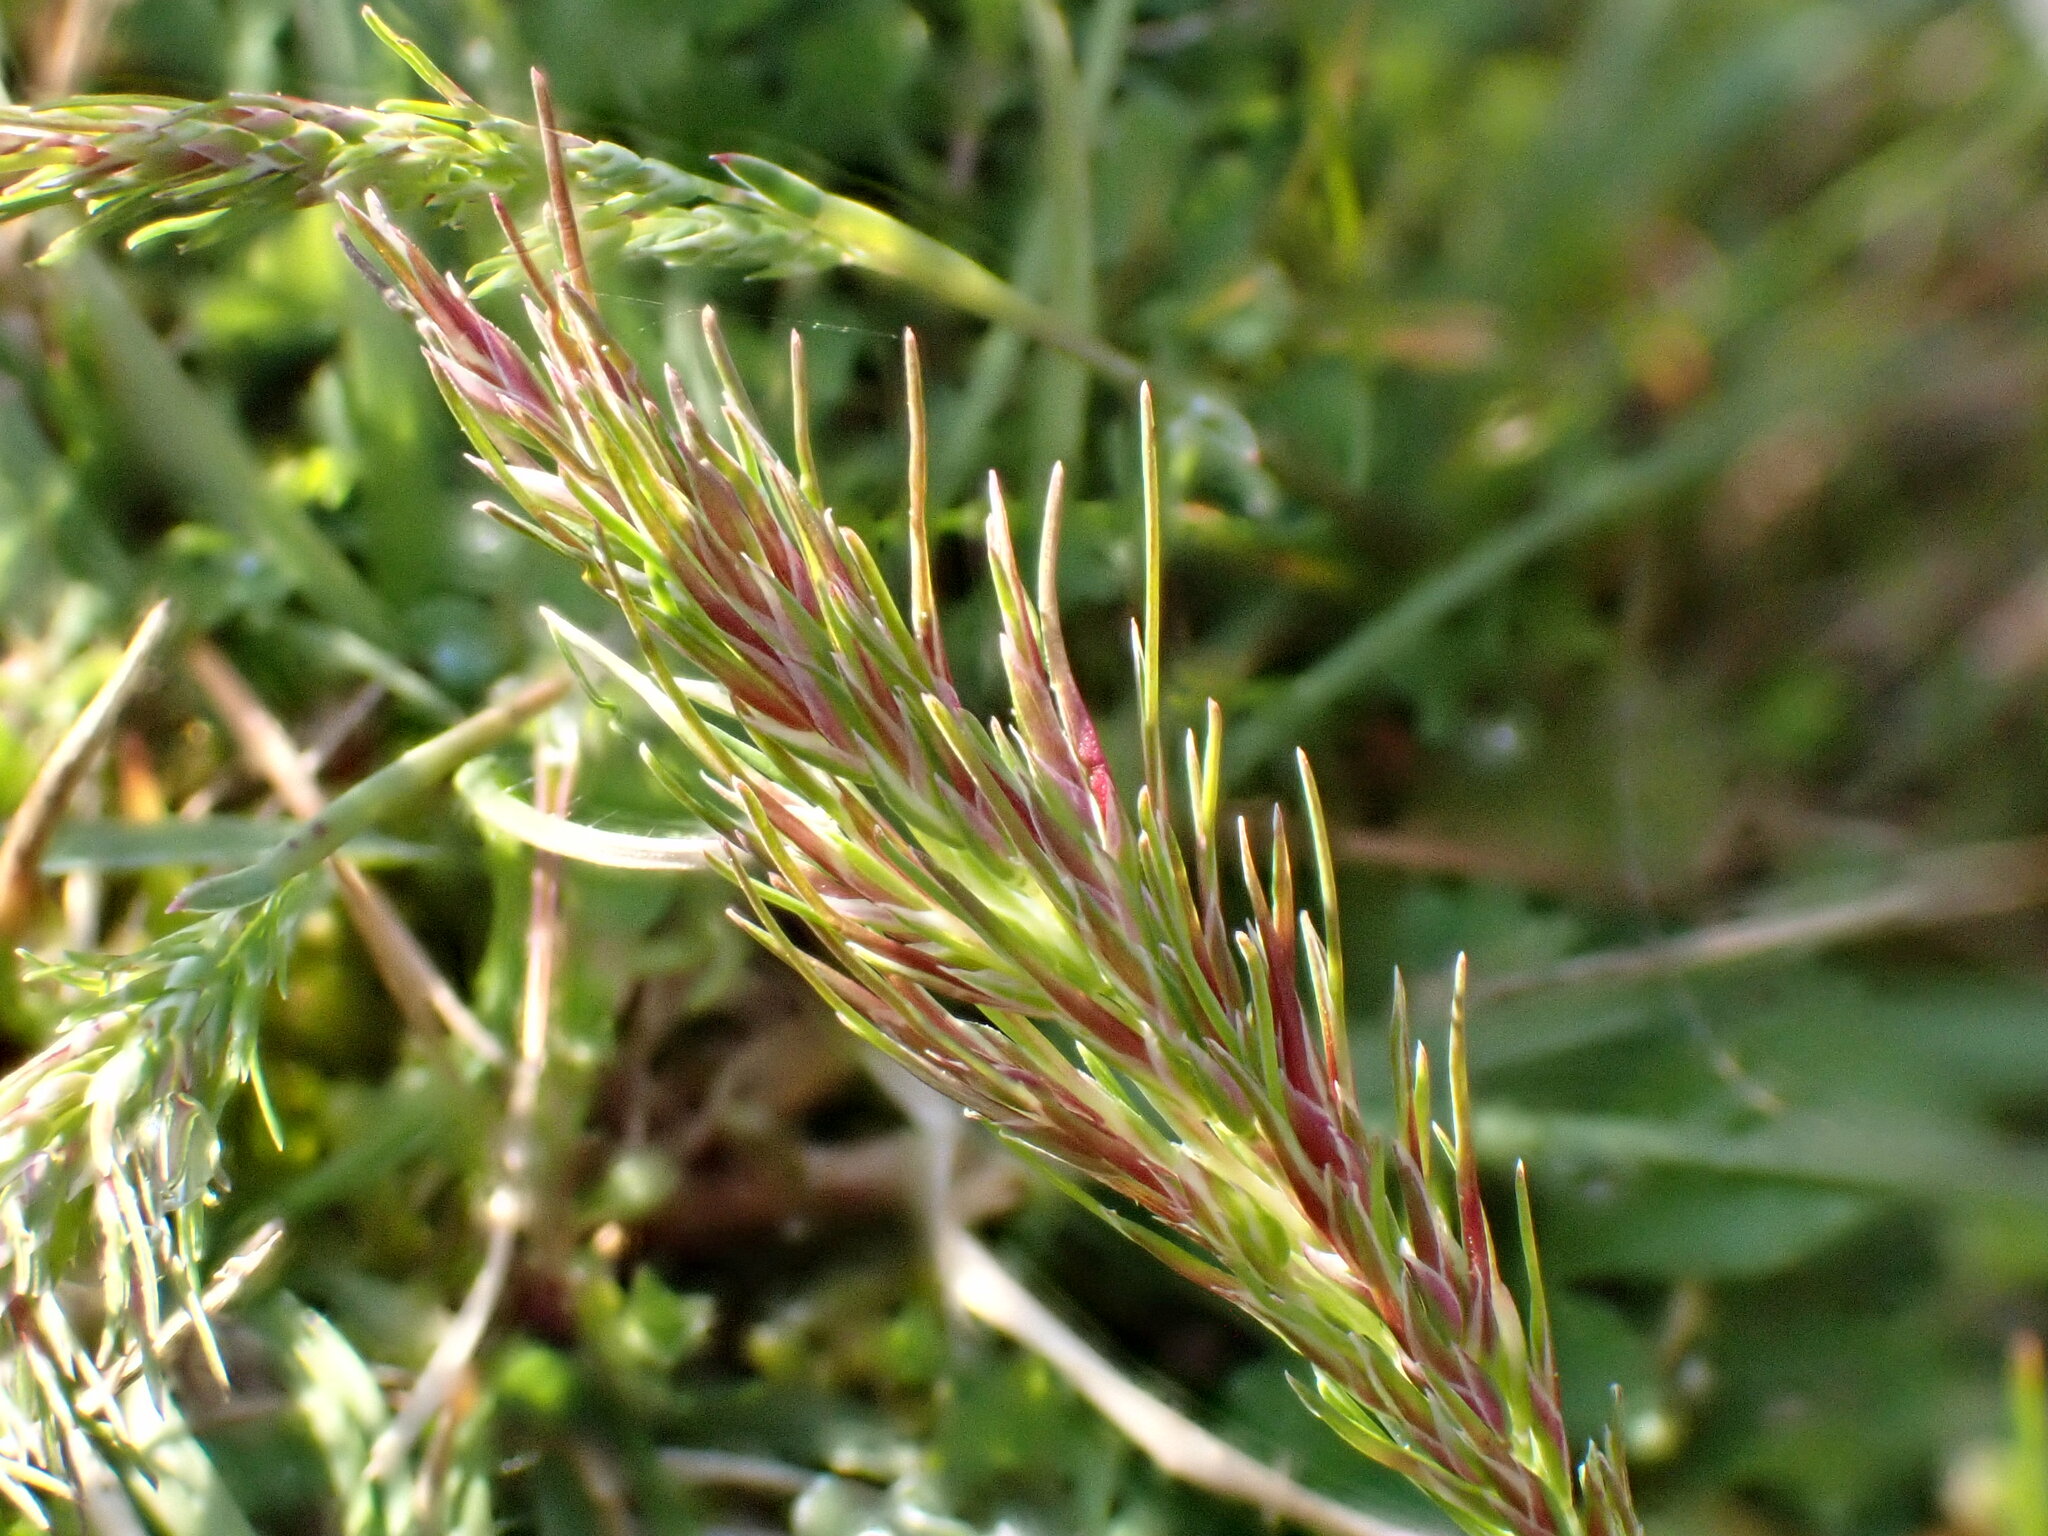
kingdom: Plantae
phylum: Tracheophyta
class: Liliopsida
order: Poales
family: Poaceae
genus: Poa
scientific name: Poa bulbosa
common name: Bulbous bluegrass
